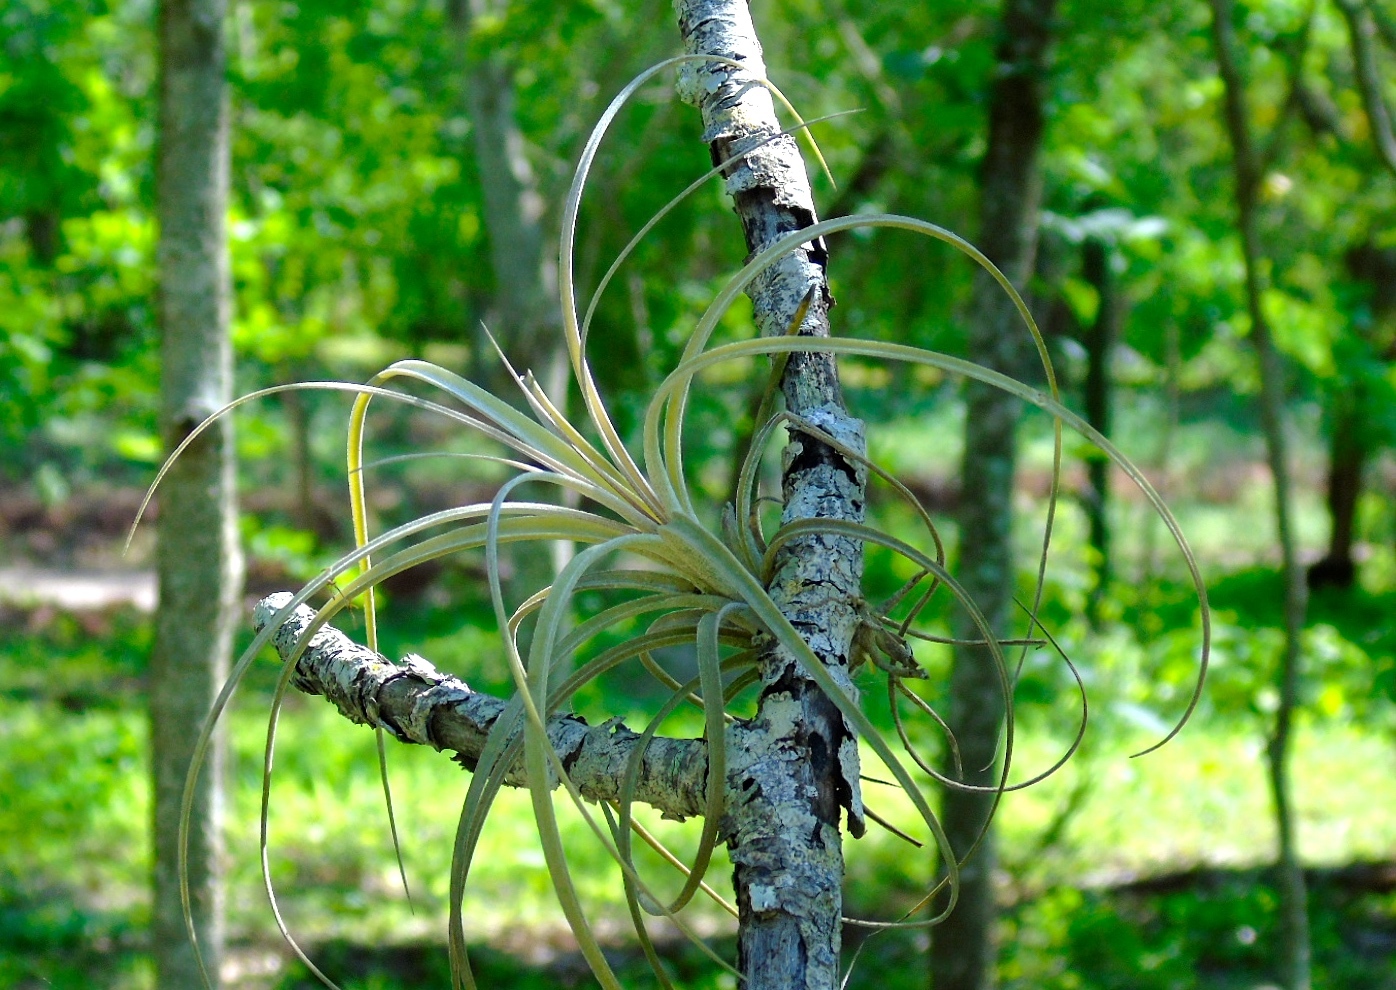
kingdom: Plantae
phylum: Tracheophyta
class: Liliopsida
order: Poales
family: Bromeliaceae
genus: Tillandsia
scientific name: Tillandsia exserta
